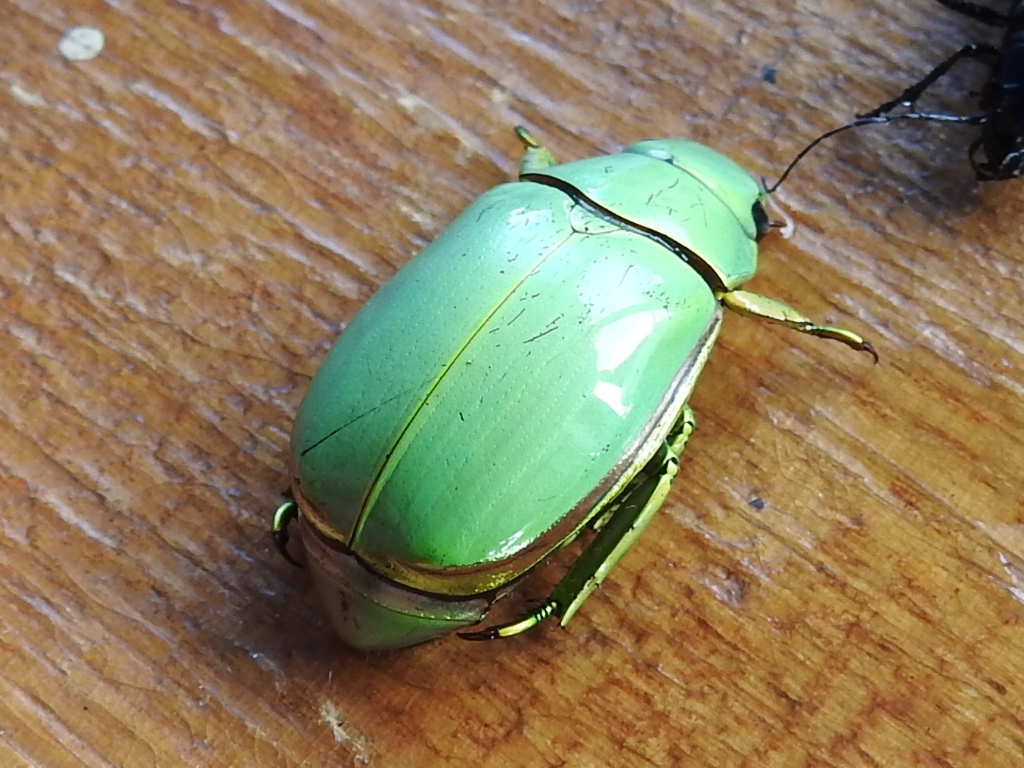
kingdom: Animalia
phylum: Arthropoda
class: Insecta
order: Coleoptera
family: Scarabaeidae
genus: Chrysina
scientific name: Chrysina marginata
